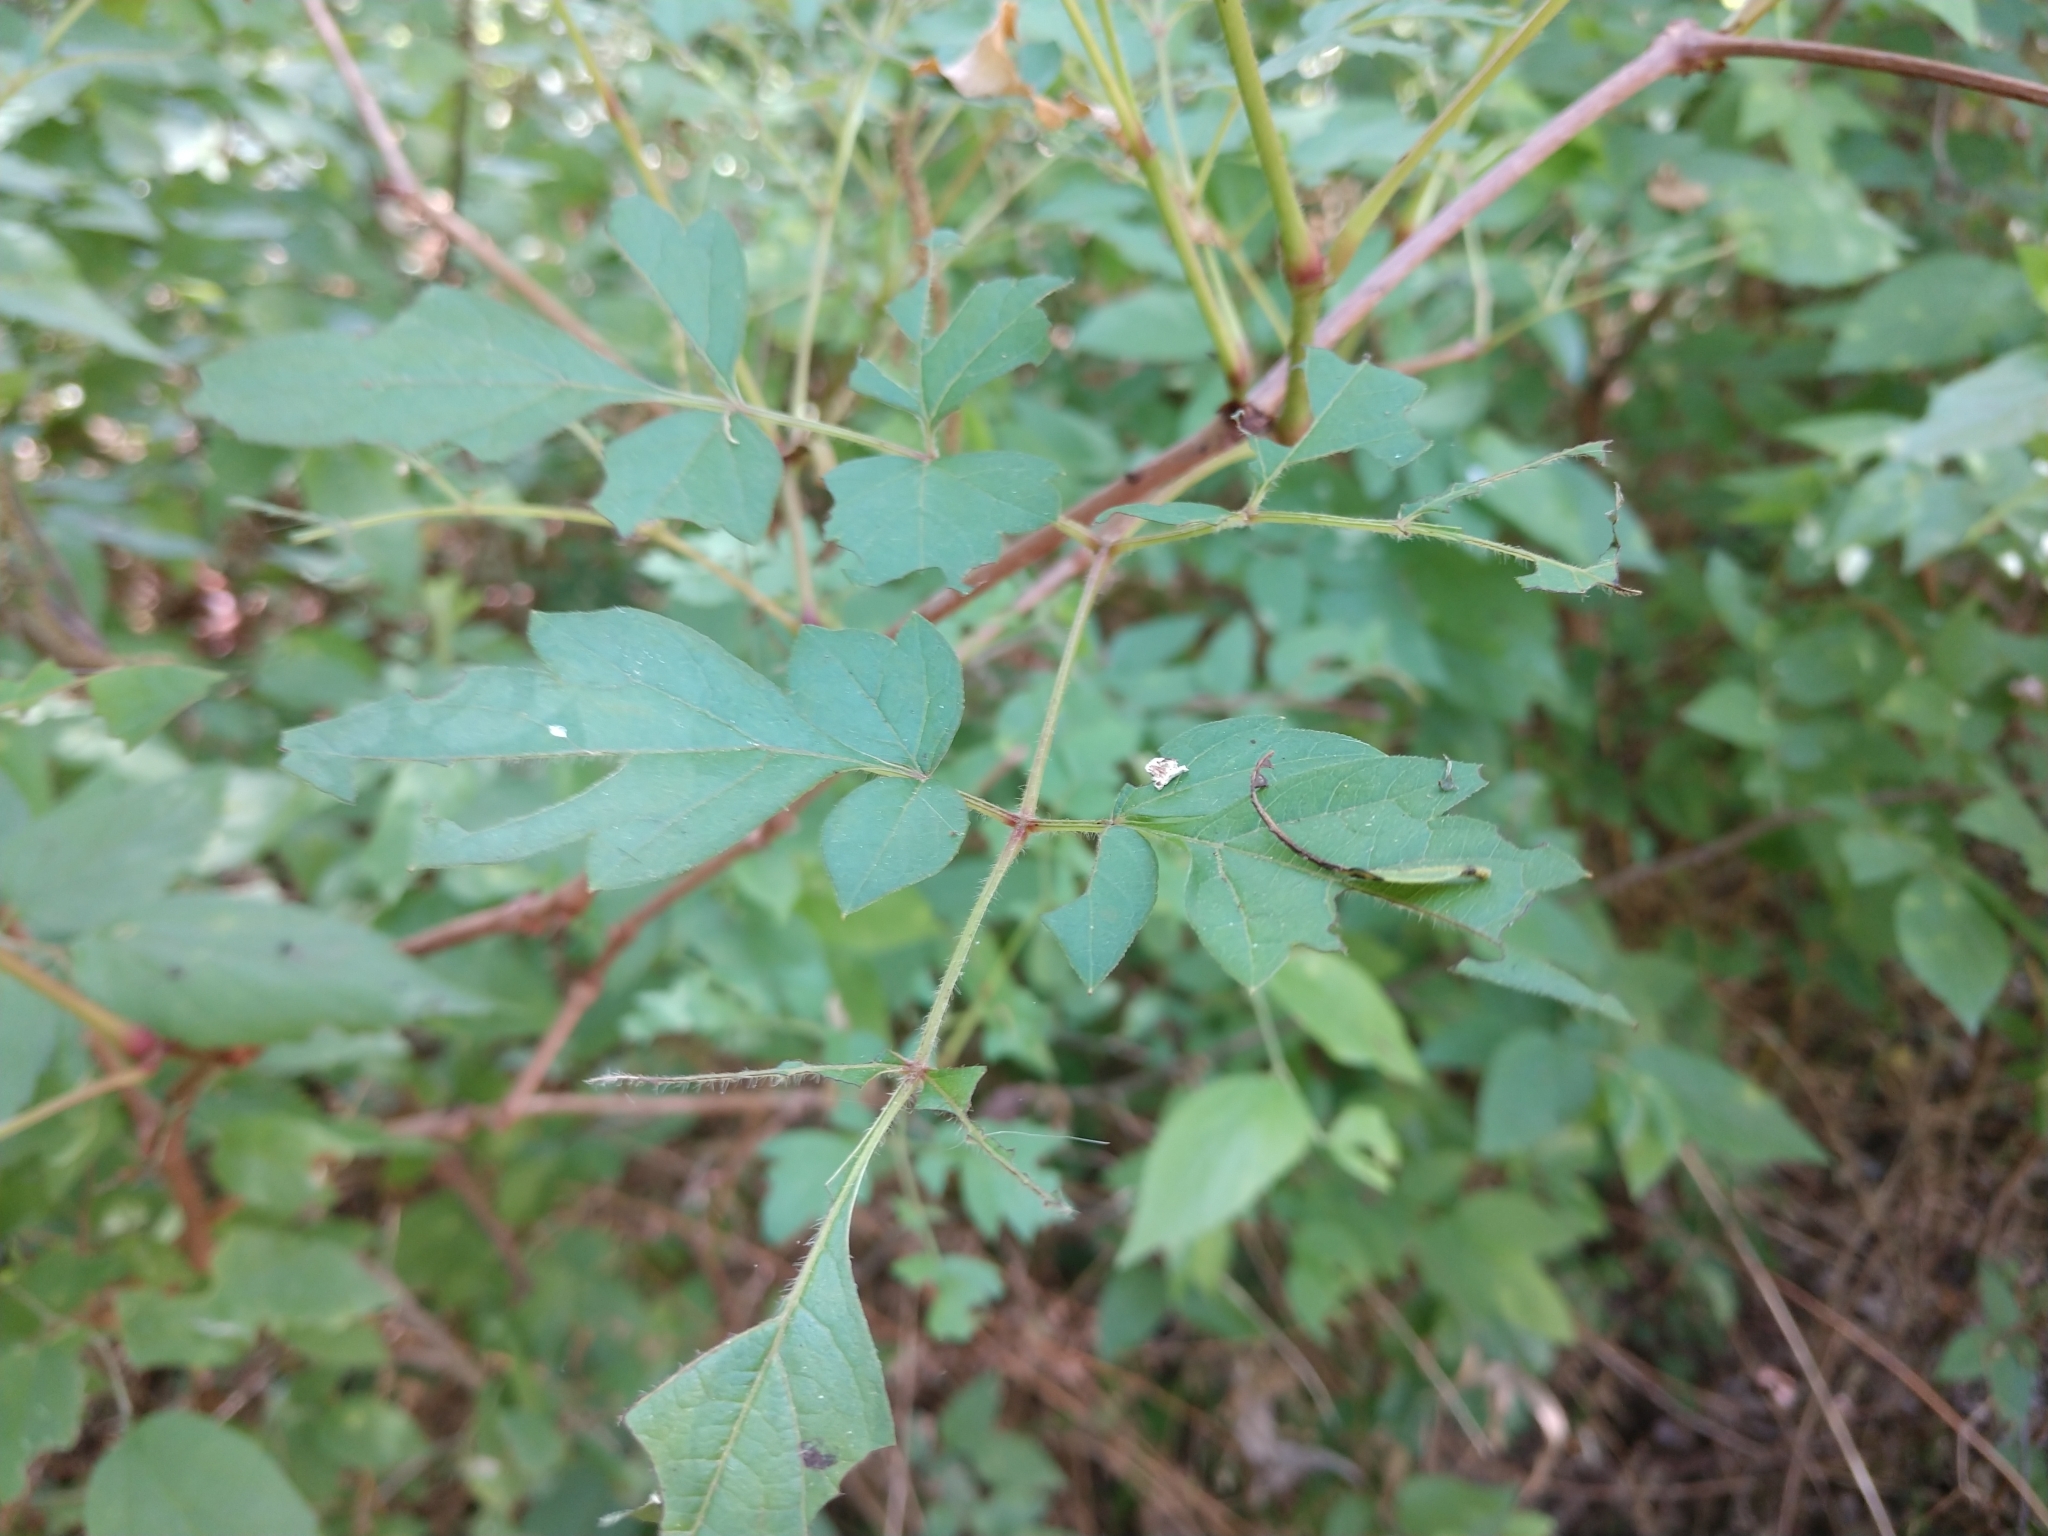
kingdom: Plantae
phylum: Tracheophyta
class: Magnoliopsida
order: Vitales
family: Vitaceae
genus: Nekemias
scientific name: Nekemias arborea
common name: Peppervine
